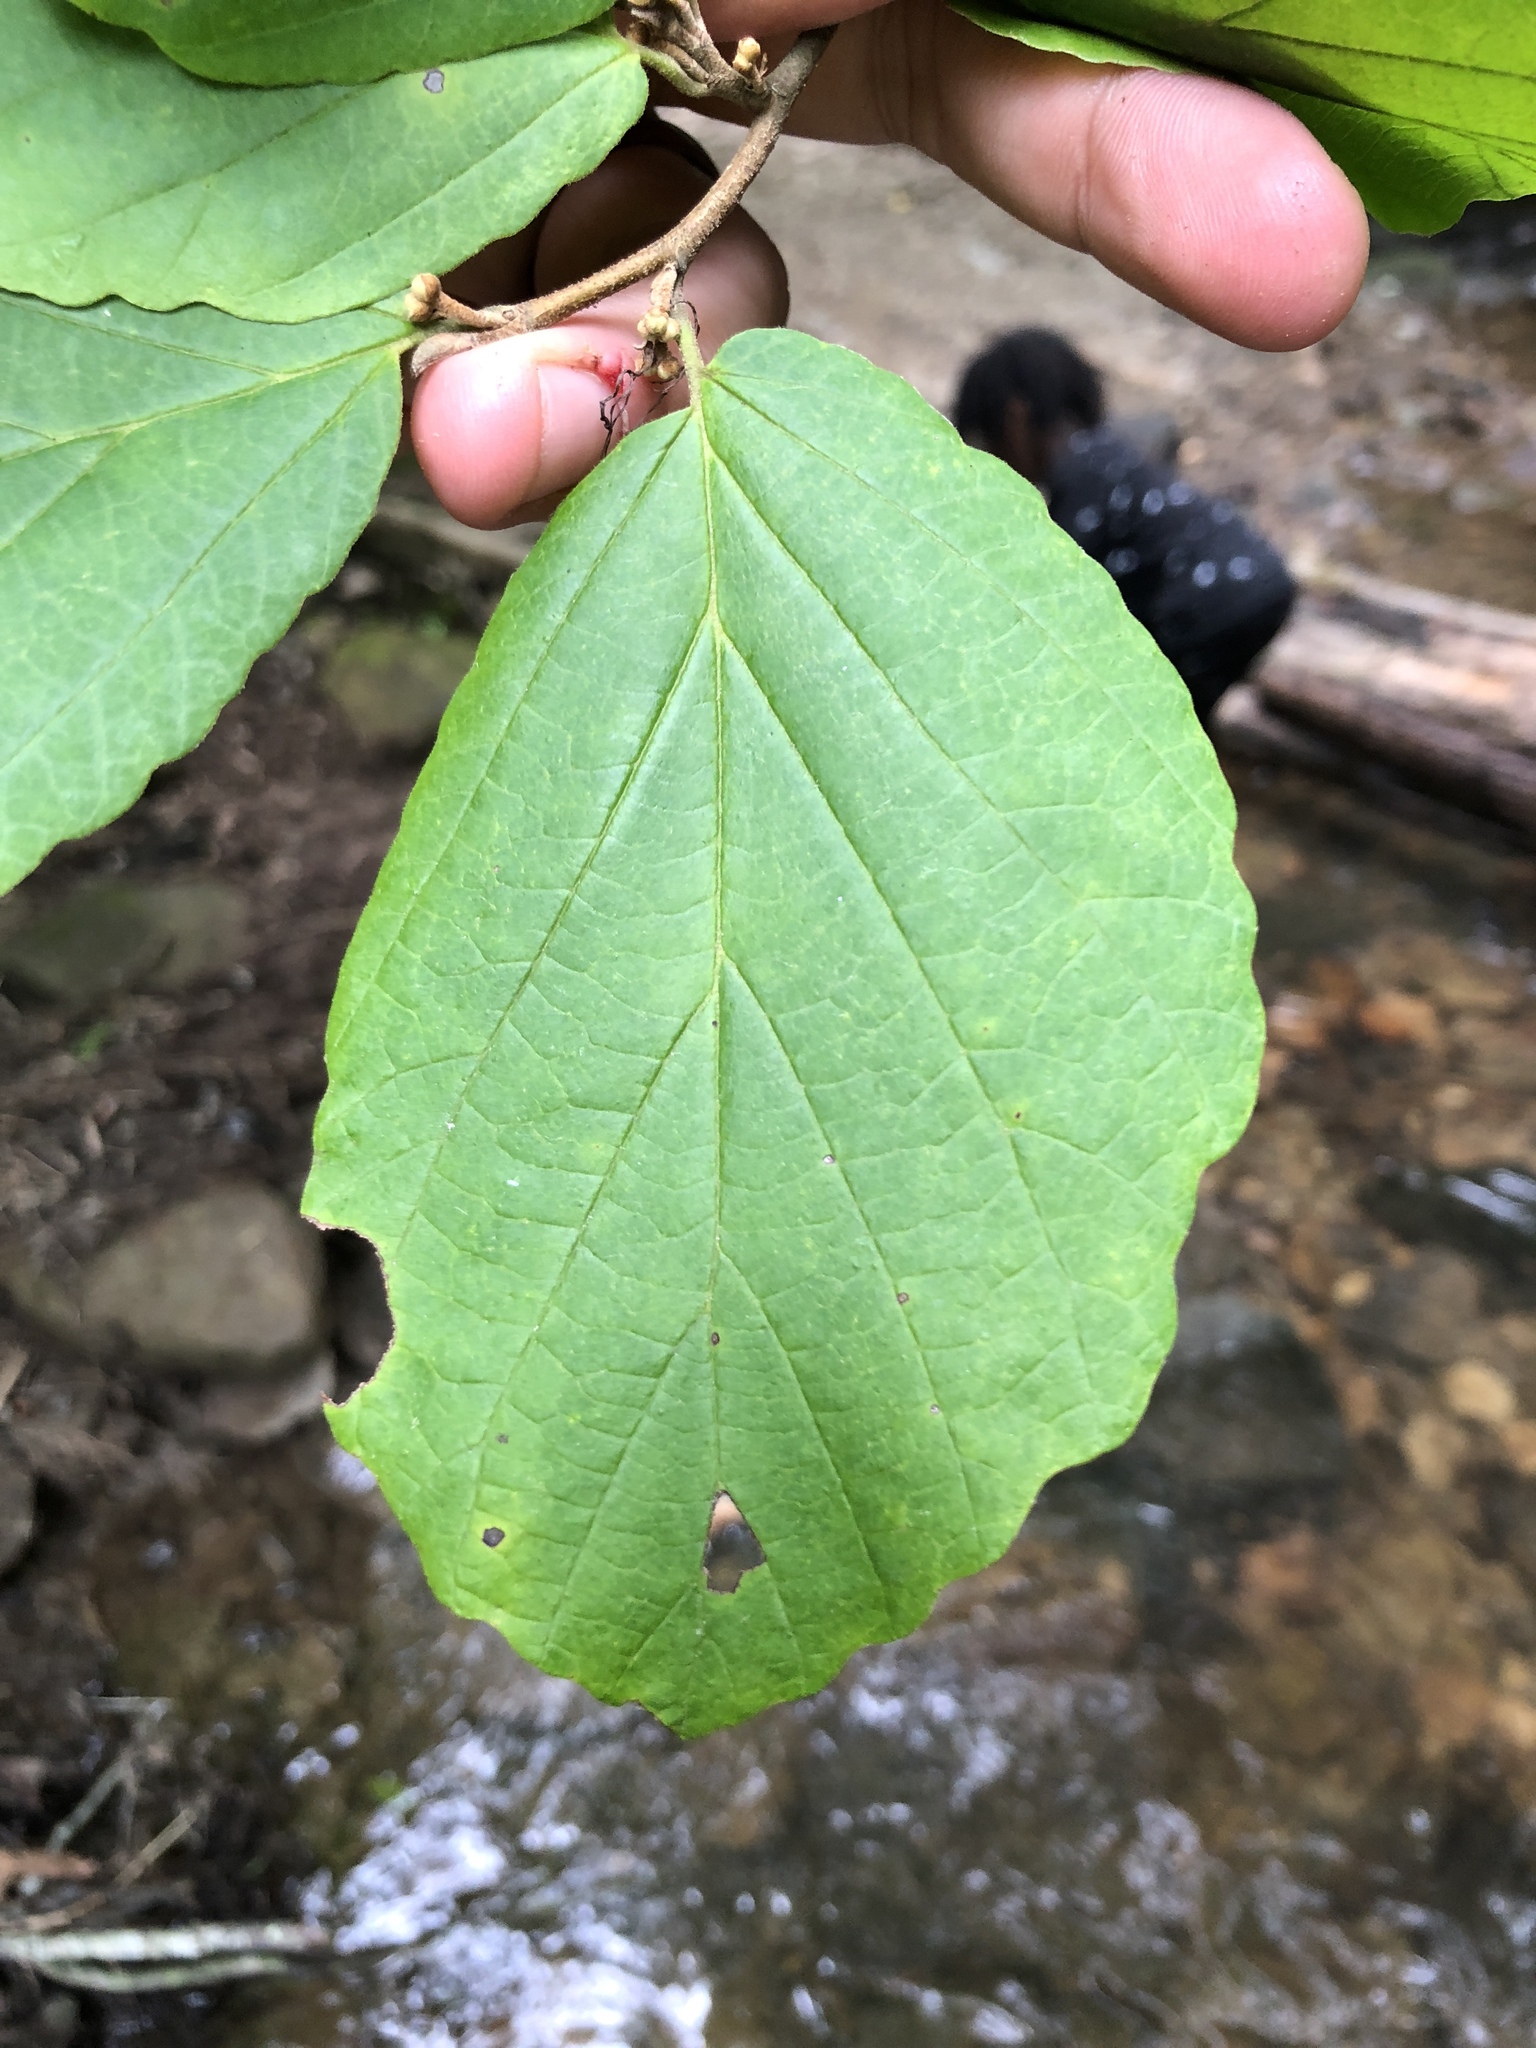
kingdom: Plantae
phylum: Tracheophyta
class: Magnoliopsida
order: Saxifragales
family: Hamamelidaceae
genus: Hamamelis
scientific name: Hamamelis virginiana
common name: Witch-hazel
